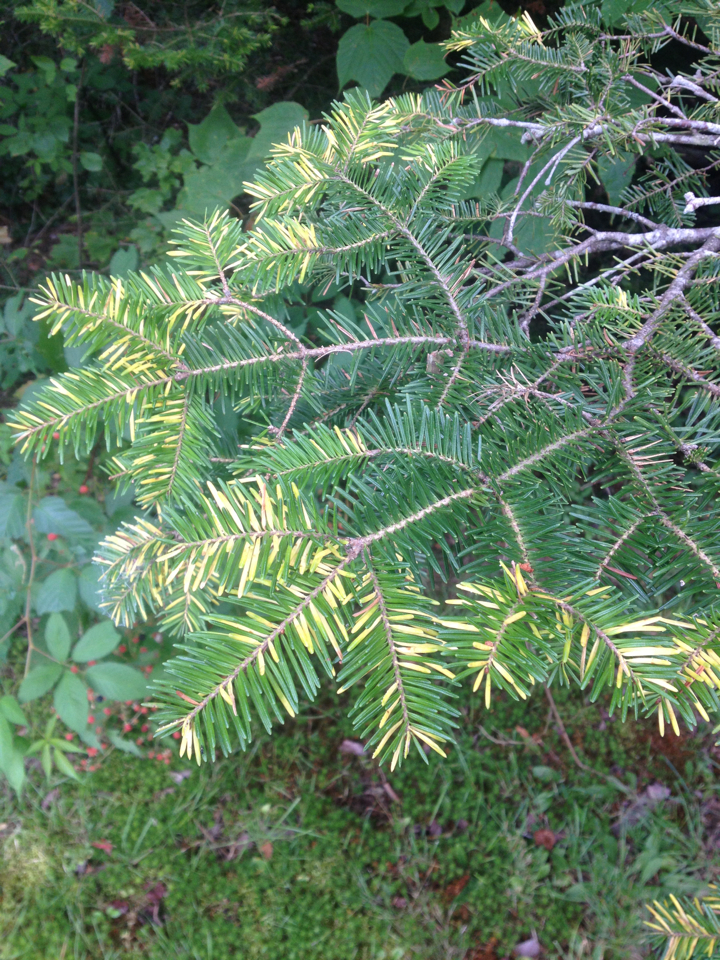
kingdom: Plantae
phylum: Tracheophyta
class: Pinopsida
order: Pinales
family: Pinaceae
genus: Abies
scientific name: Abies balsamea
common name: Balsam fir
